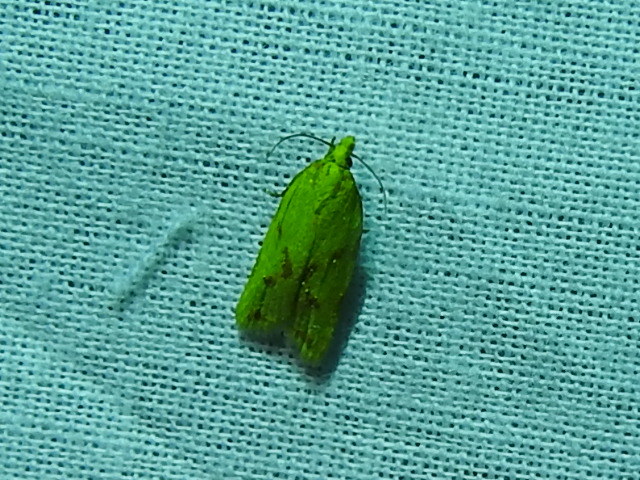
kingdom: Animalia
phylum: Arthropoda
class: Insecta
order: Lepidoptera
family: Tortricidae
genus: Sparganothis
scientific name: Sparganothis sulfureana
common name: Sparganothis fruitworm moth
